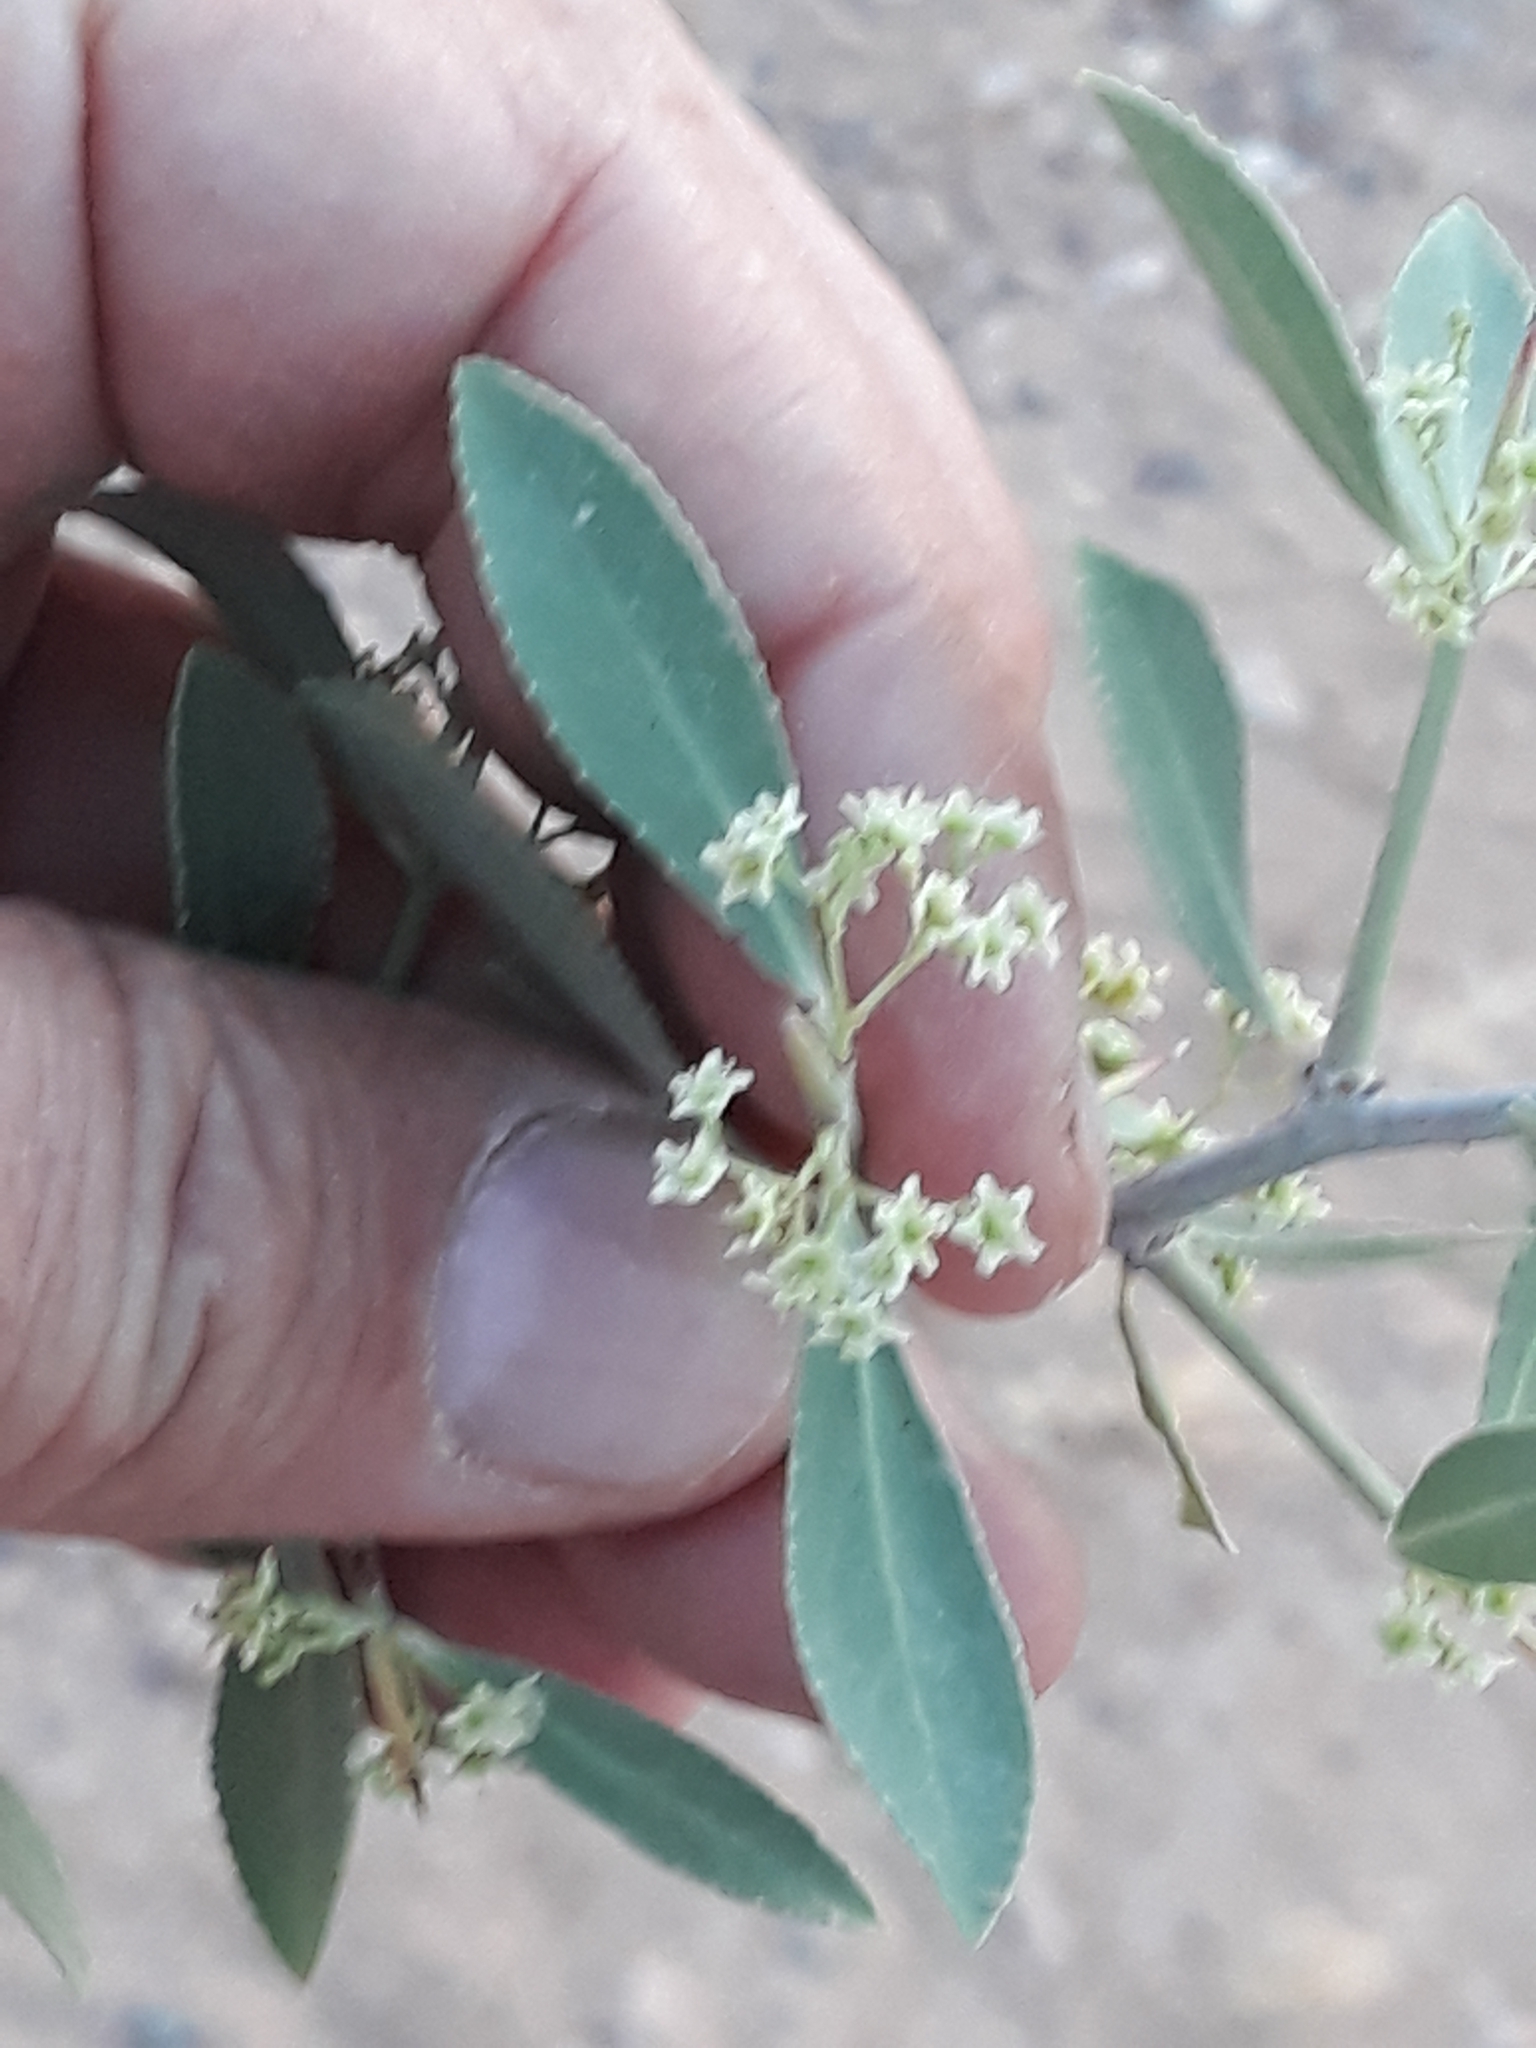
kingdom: Plantae
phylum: Tracheophyta
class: Magnoliopsida
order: Celastrales
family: Celastraceae
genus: Gymnosporia
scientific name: Gymnosporia senegalensis
